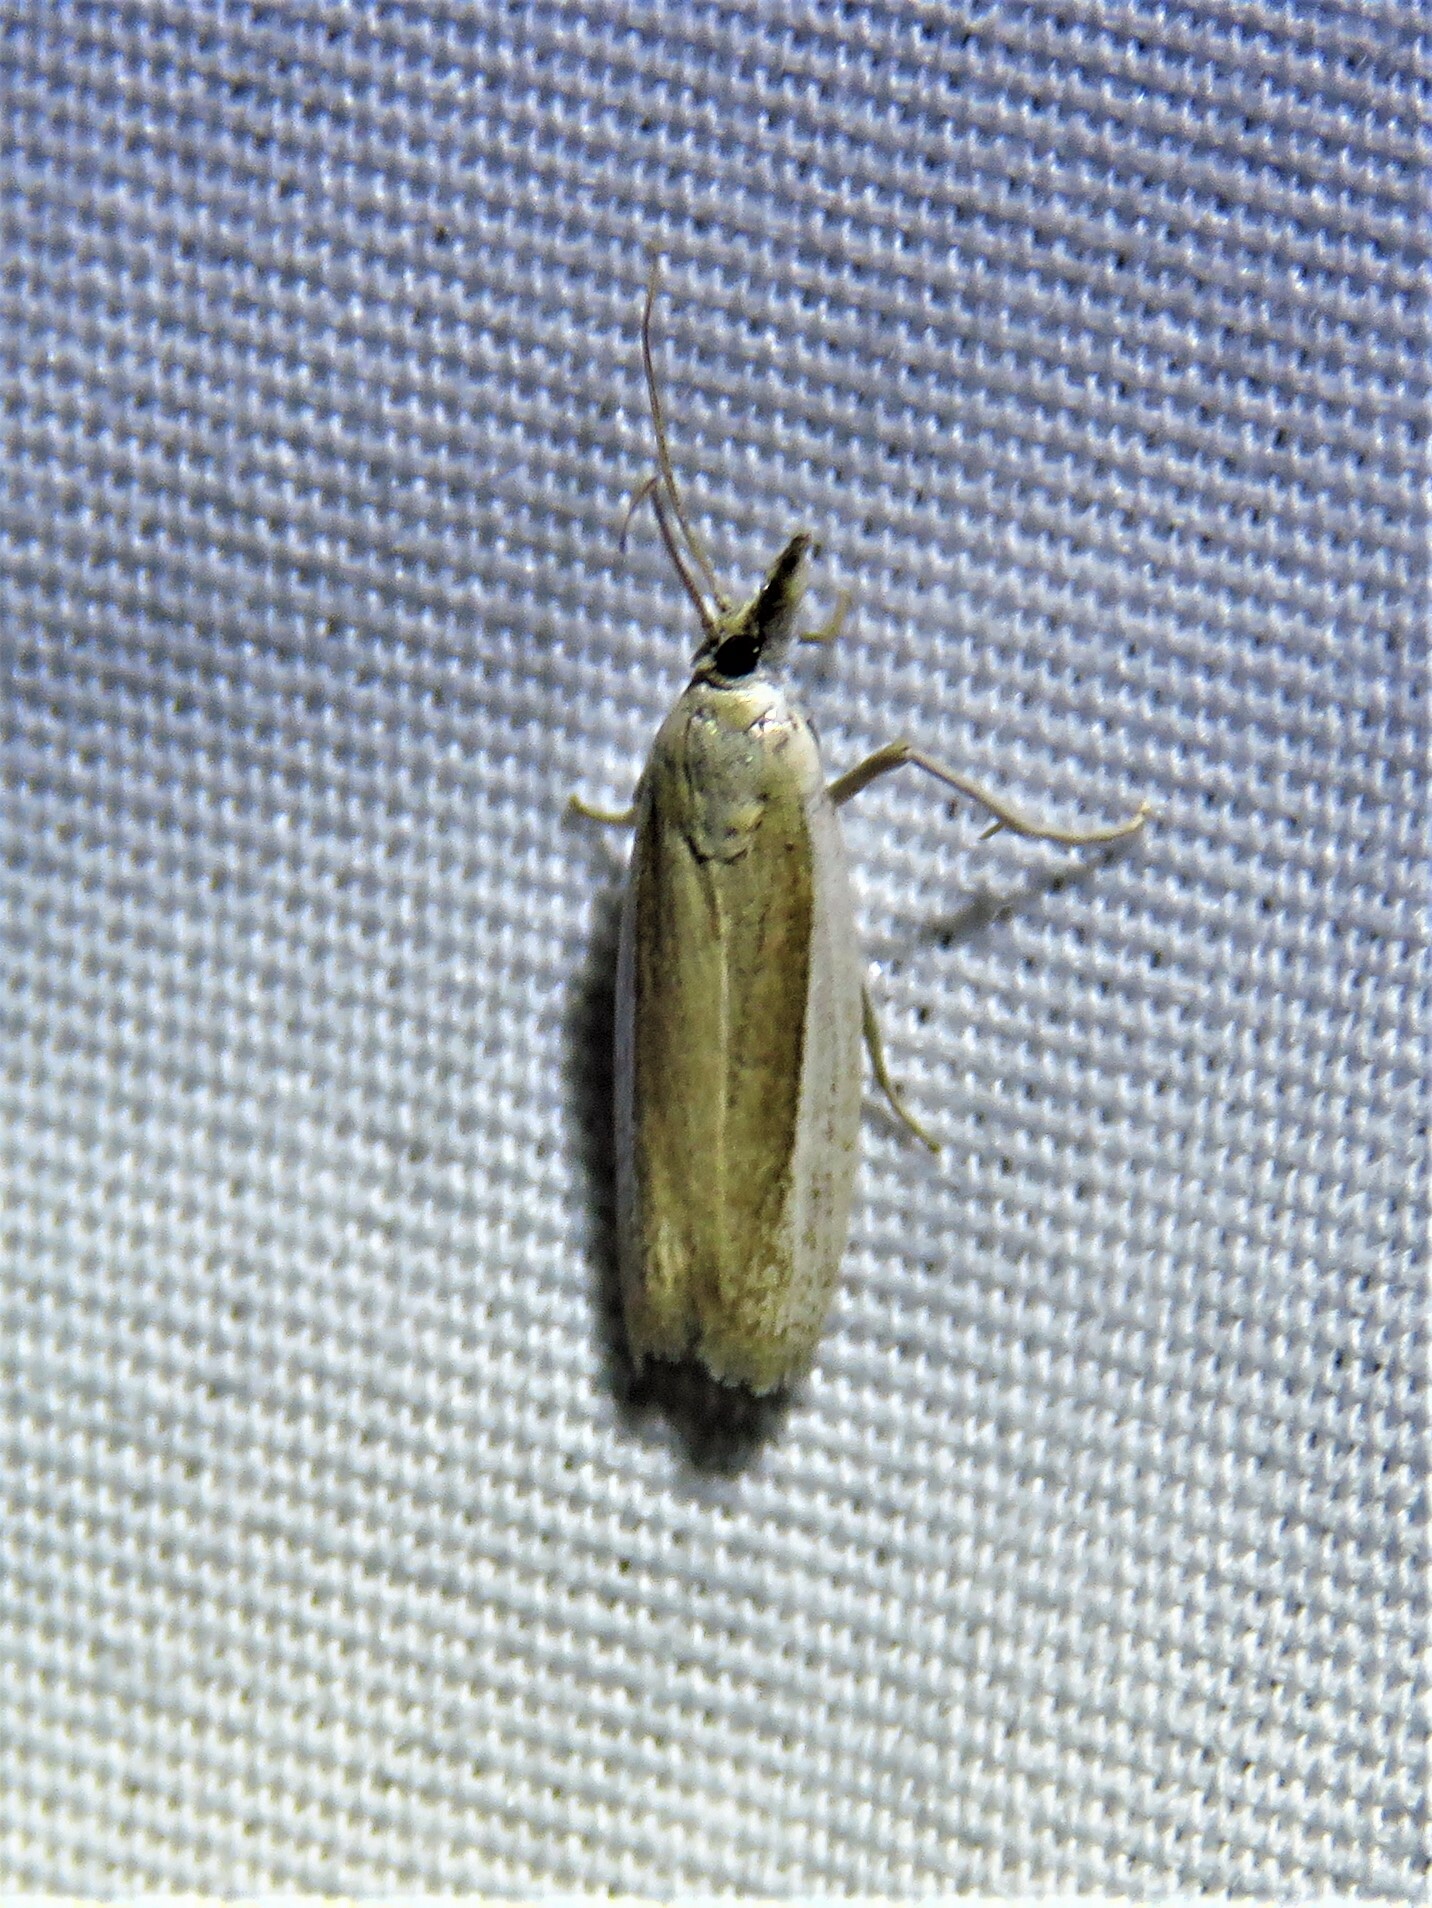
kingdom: Animalia
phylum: Arthropoda
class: Insecta
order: Lepidoptera
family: Pyralidae
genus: Tampa
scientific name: Tampa dimediatella
